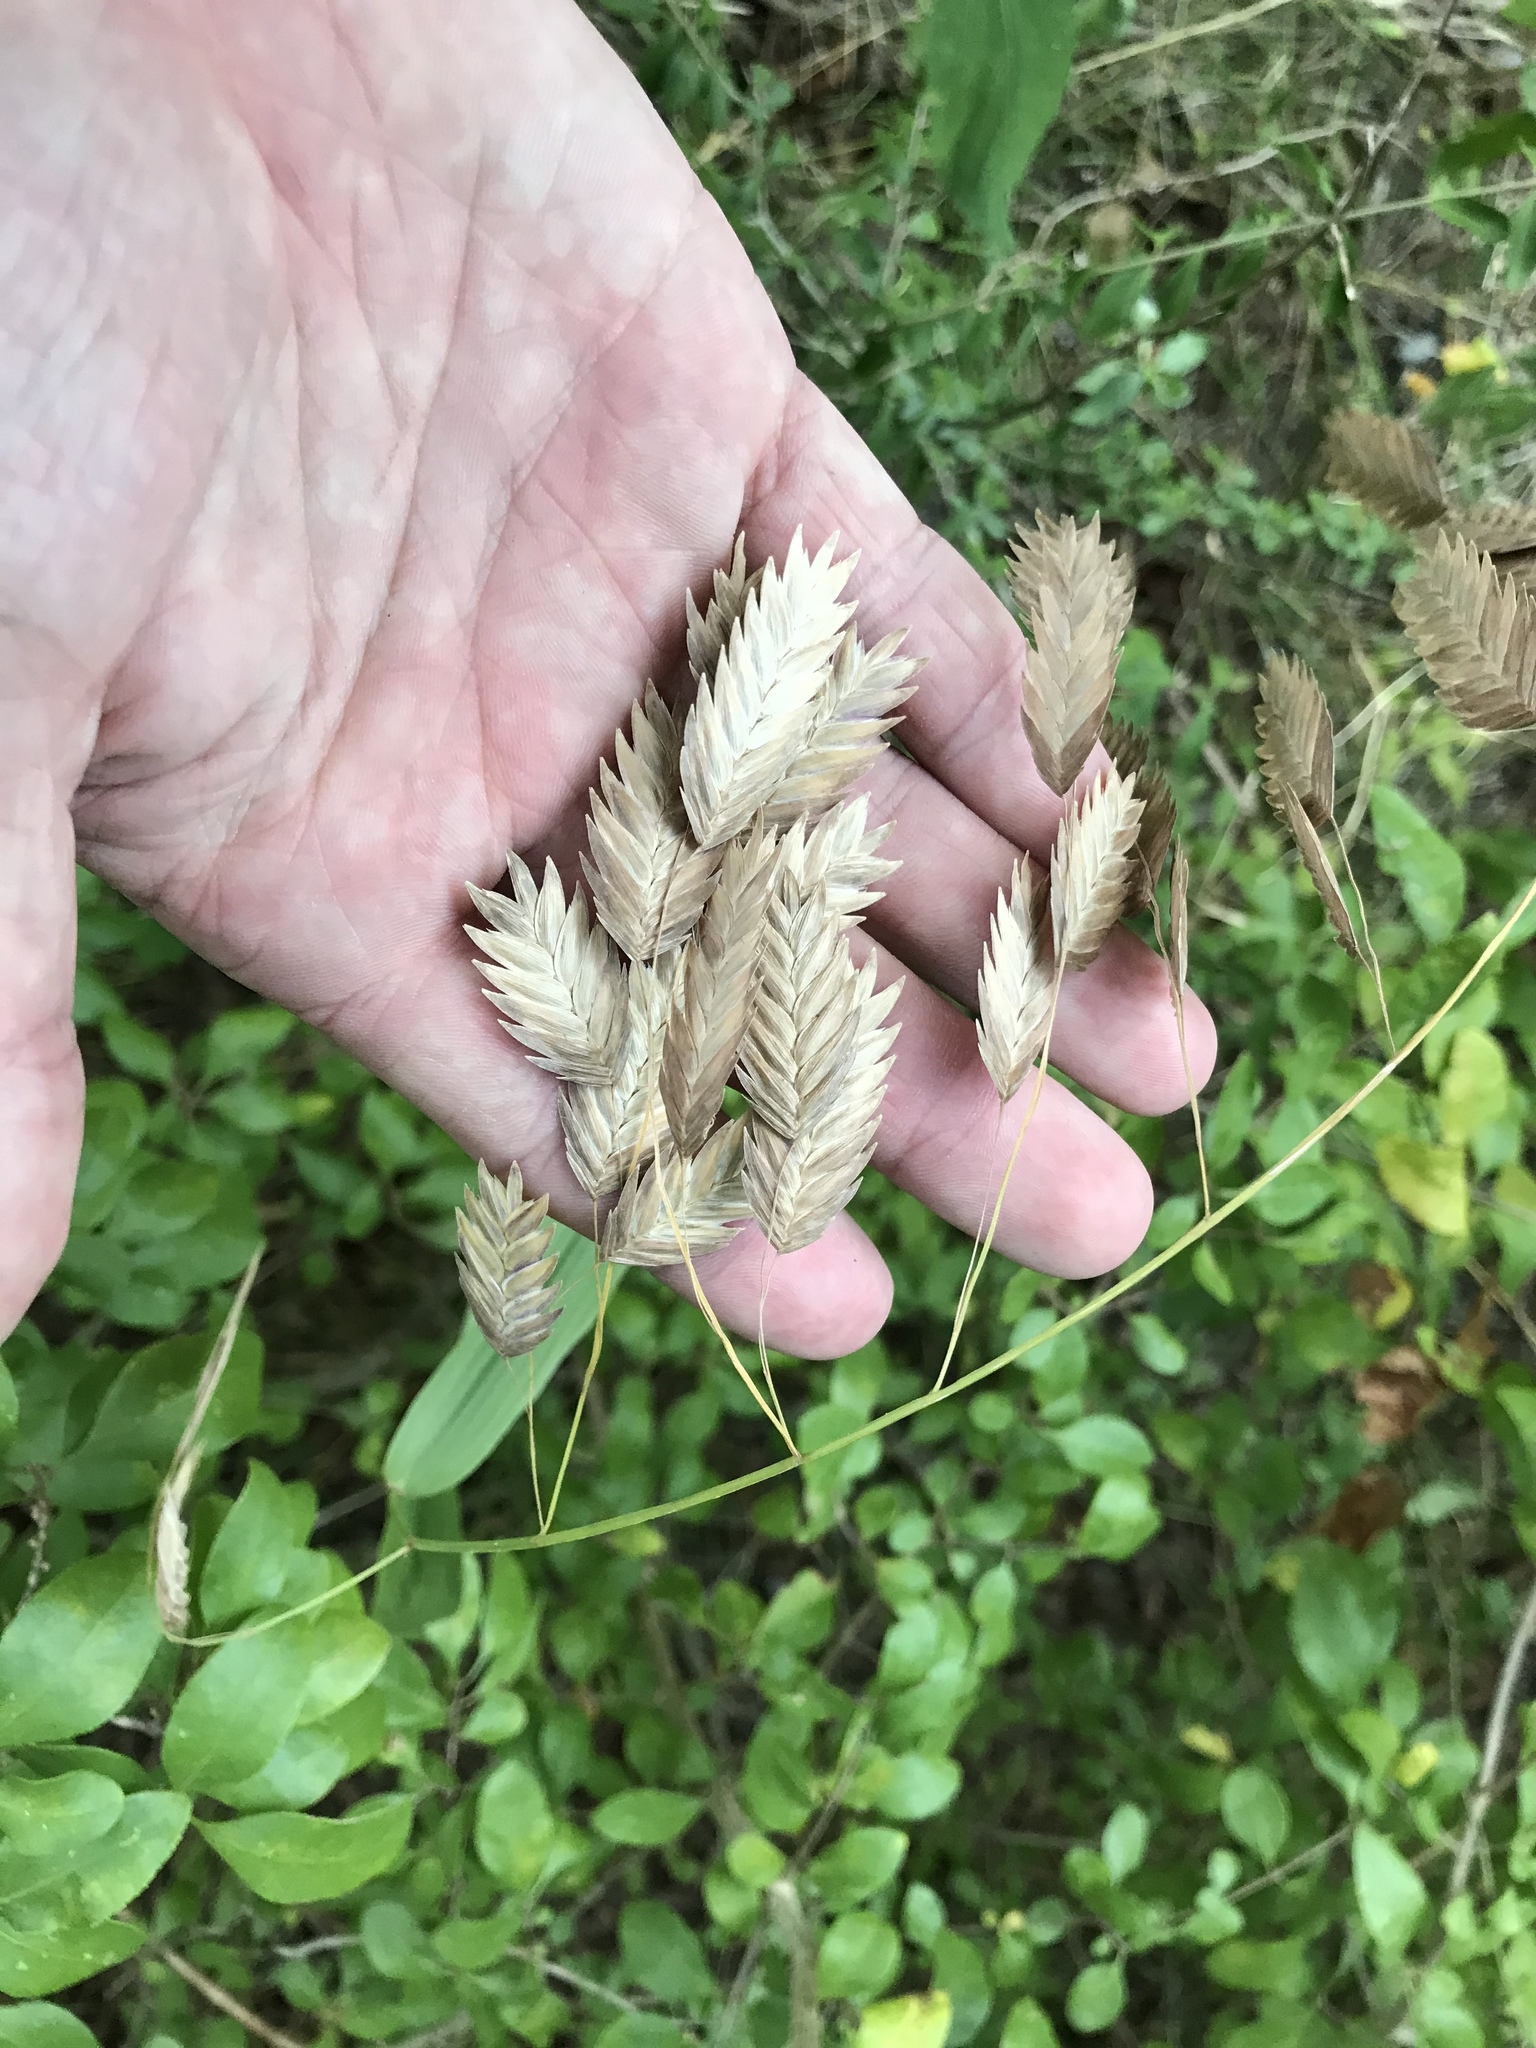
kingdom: Plantae
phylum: Tracheophyta
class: Liliopsida
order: Poales
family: Poaceae
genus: Chasmanthium
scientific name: Chasmanthium latifolium
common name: Broad-leaved chasmanthium
